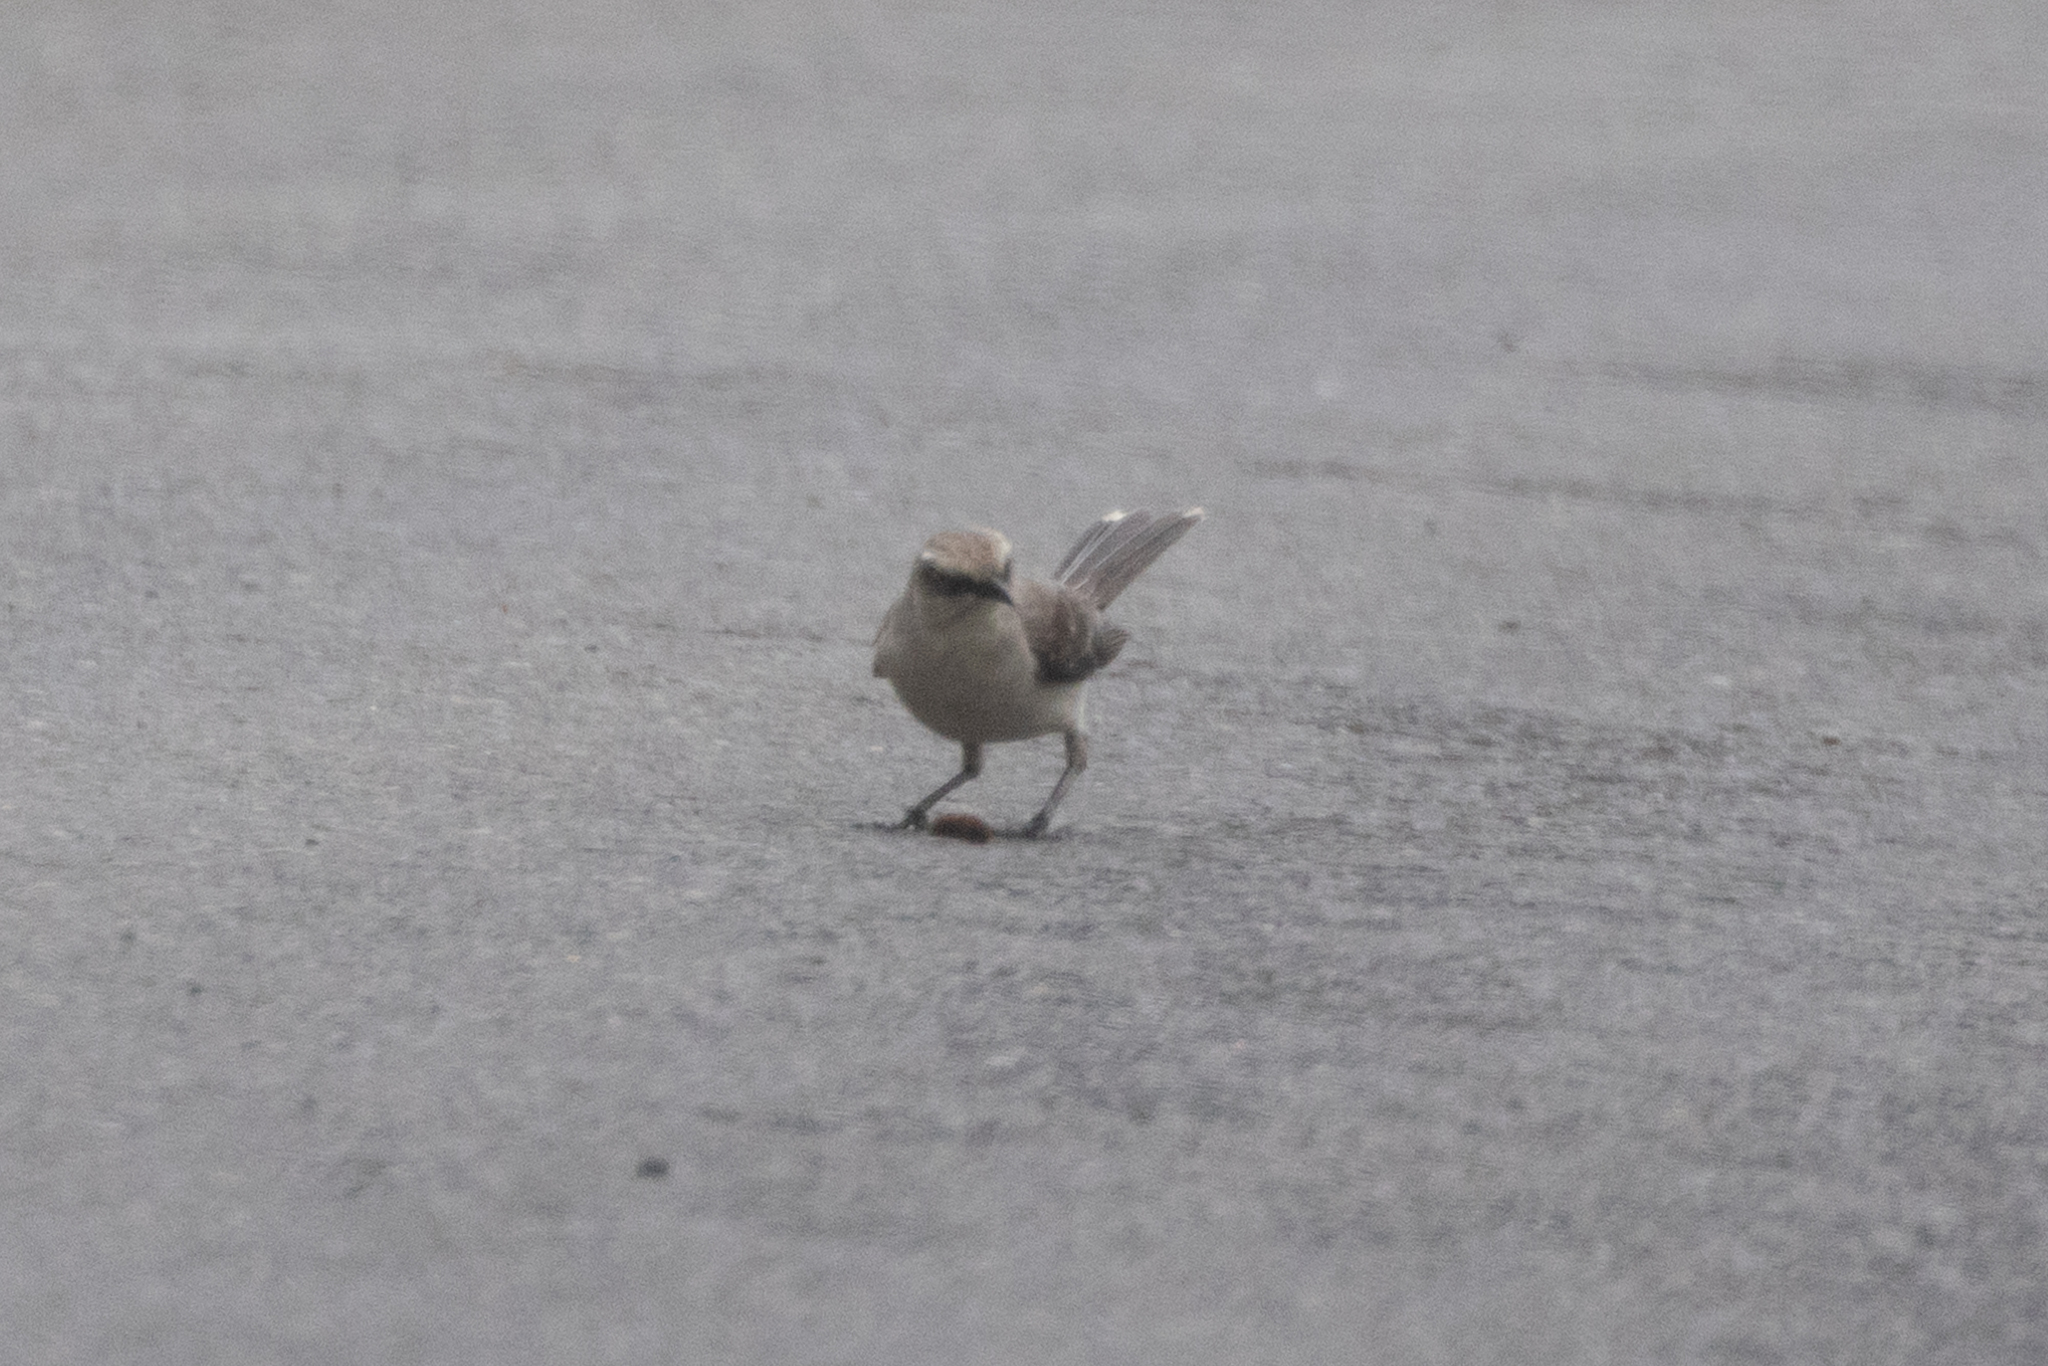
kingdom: Animalia
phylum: Chordata
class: Aves
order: Passeriformes
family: Mimidae
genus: Mimus
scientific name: Mimus gilvus
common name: Tropical mockingbird
